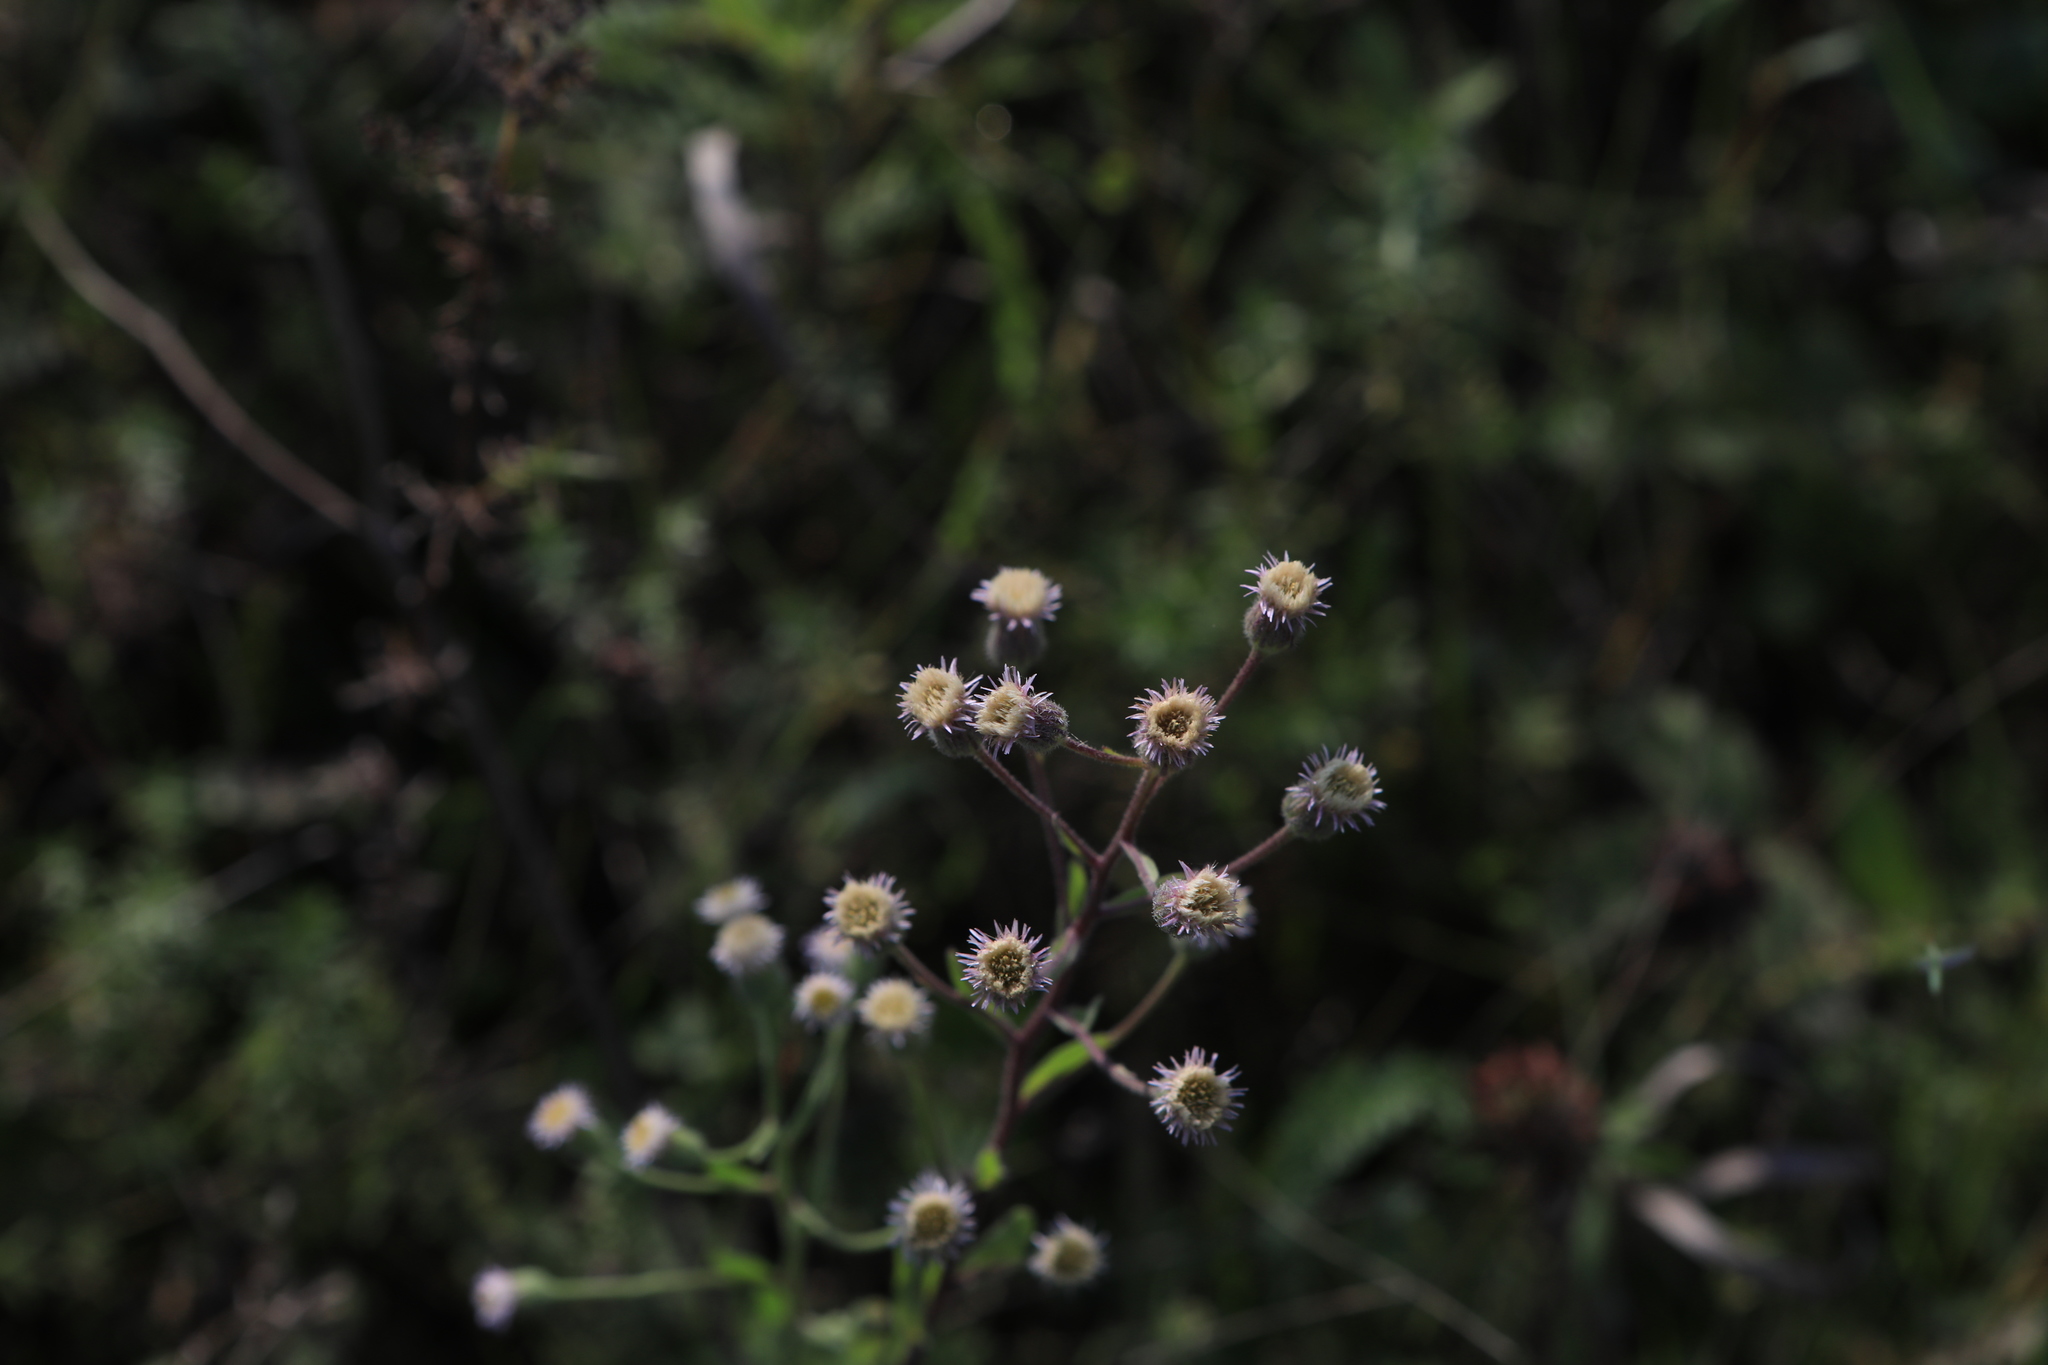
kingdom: Plantae
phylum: Tracheophyta
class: Magnoliopsida
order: Asterales
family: Asteraceae
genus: Erigeron
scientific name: Erigeron acris
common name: Blue fleabane
